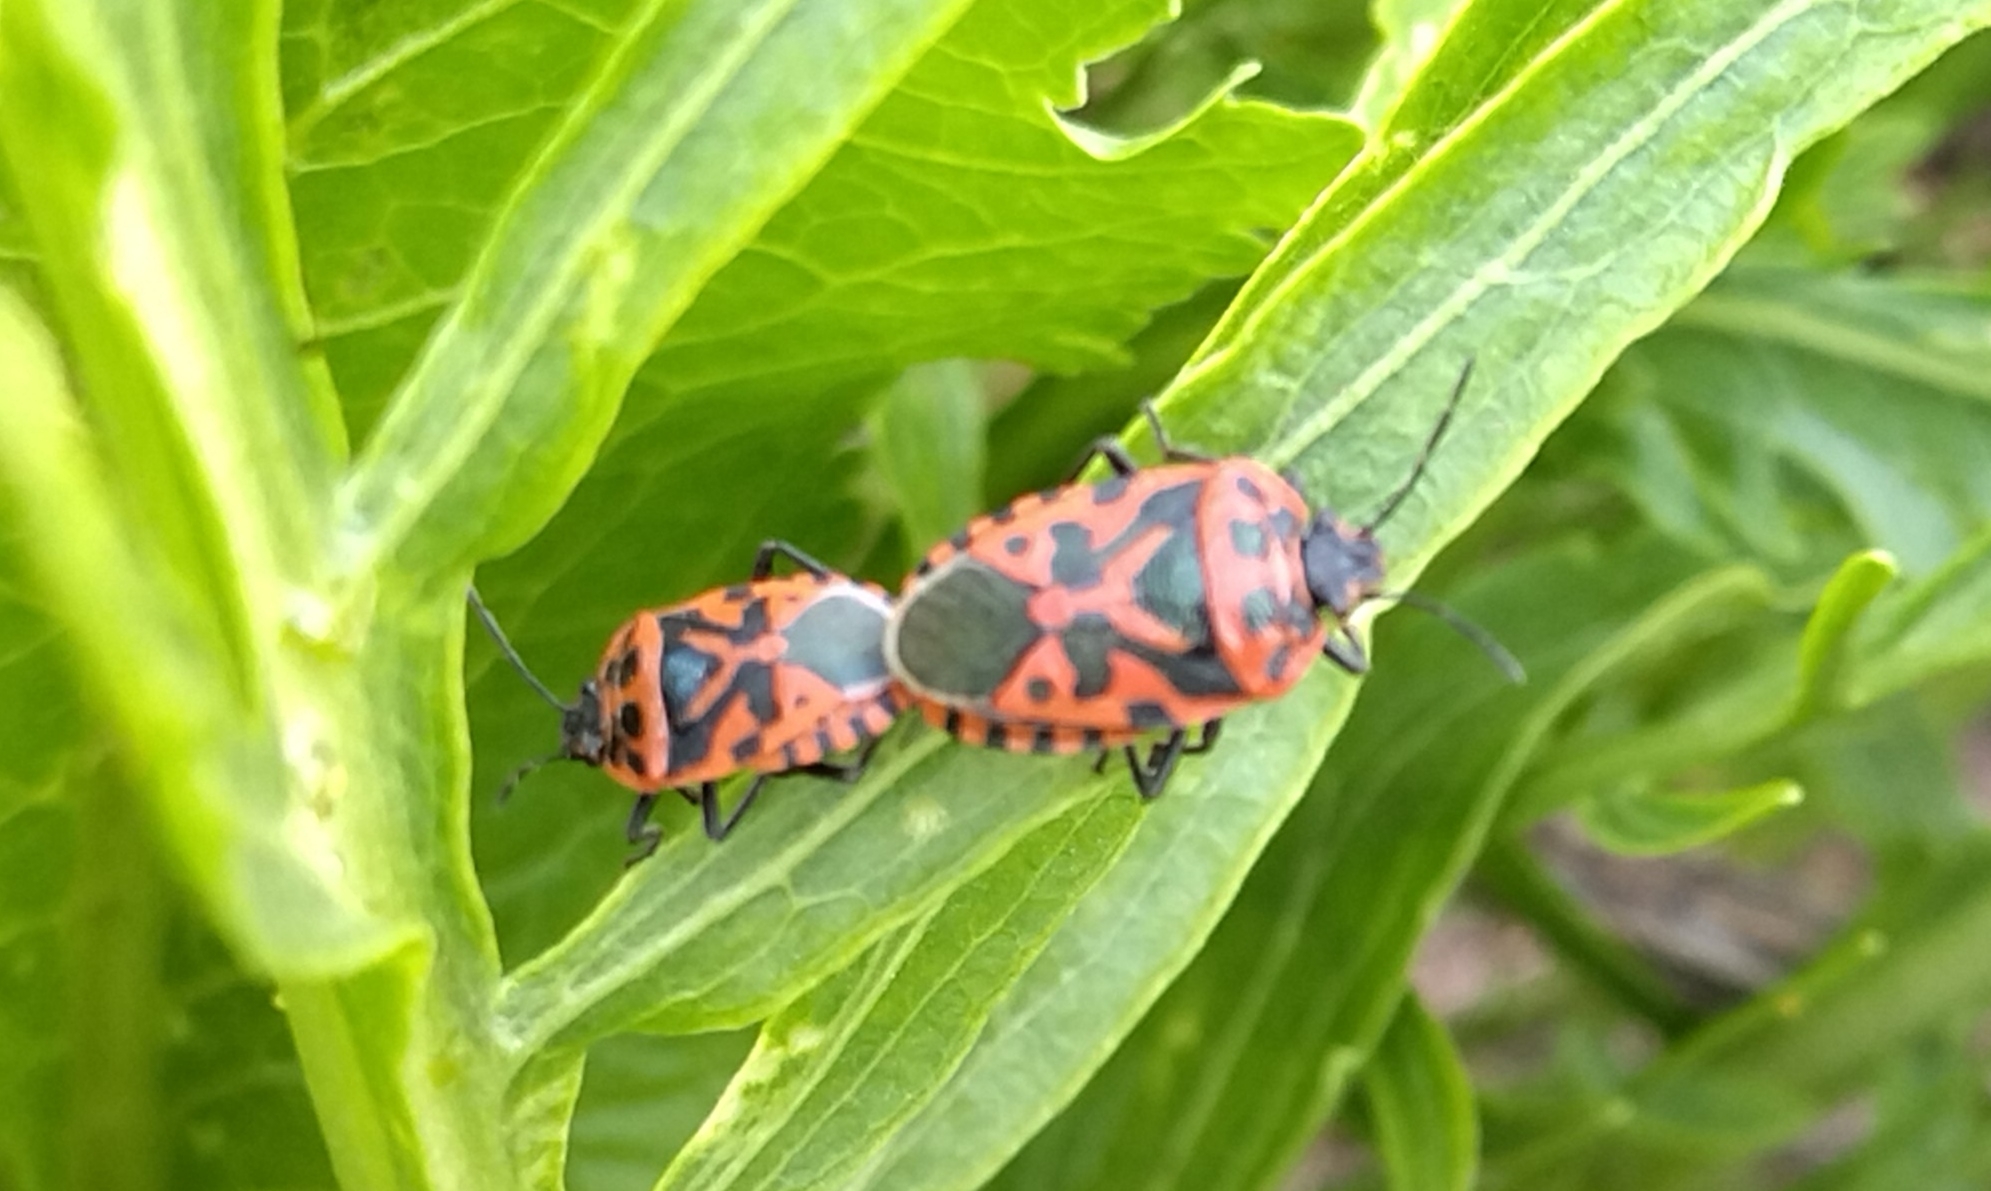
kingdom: Animalia
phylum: Arthropoda
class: Insecta
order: Hemiptera
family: Pentatomidae
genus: Eurydema
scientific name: Eurydema ventralis
